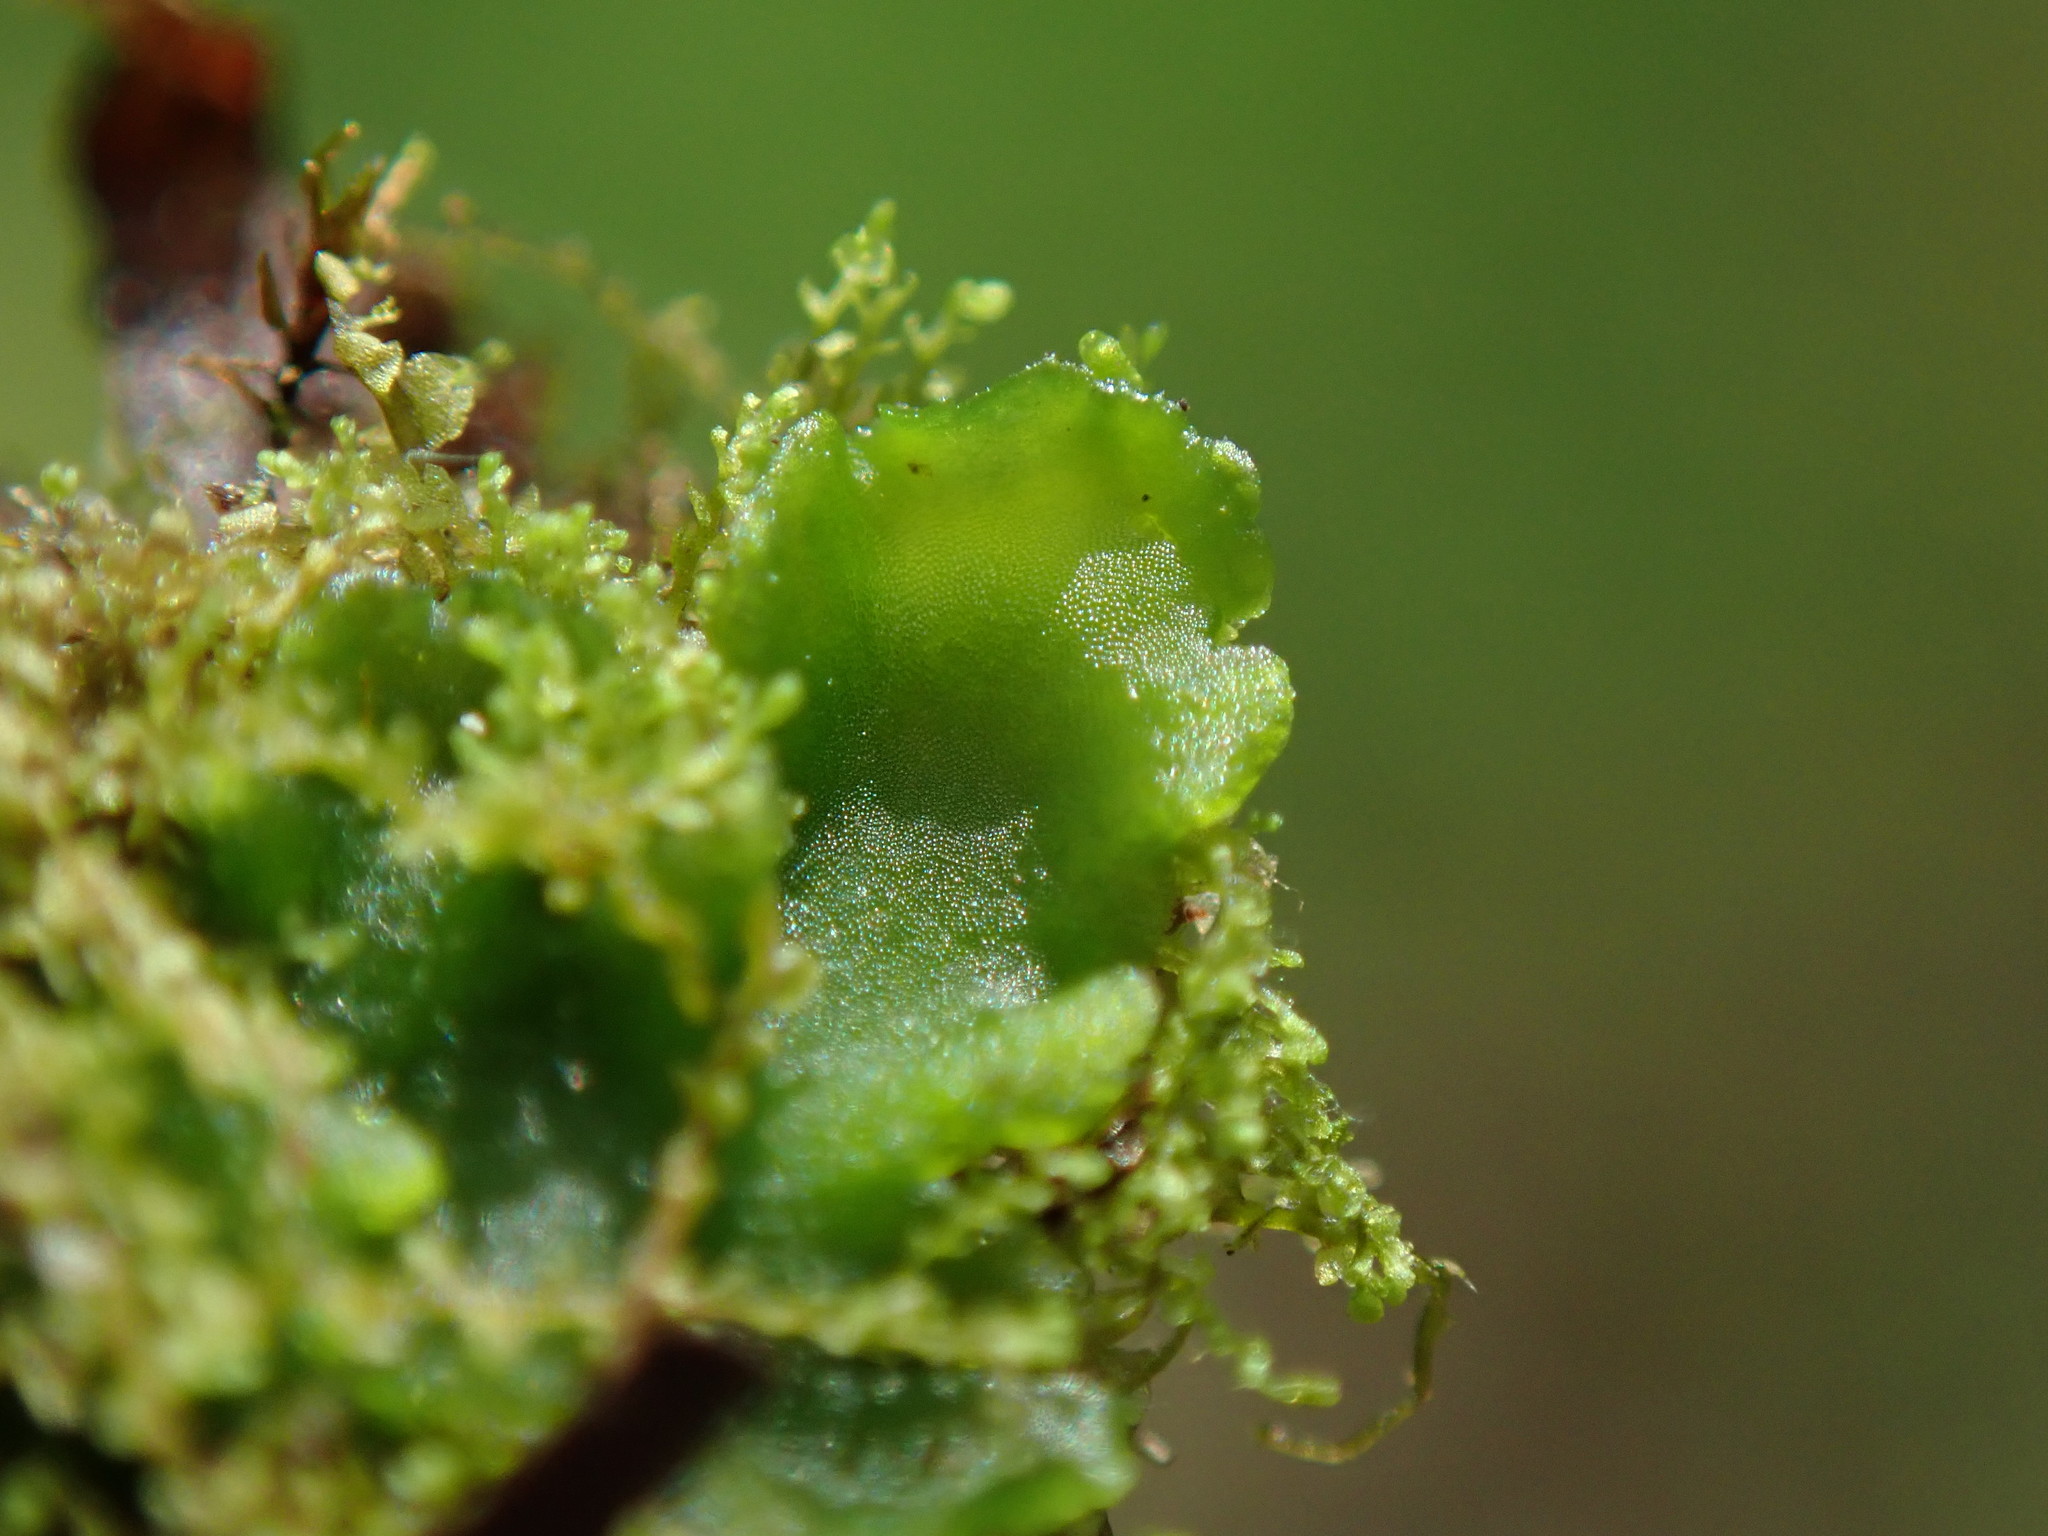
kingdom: Plantae
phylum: Marchantiophyta
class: Jungermanniopsida
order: Metzgeriales
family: Aneuraceae
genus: Aneura
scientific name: Aneura pinguis
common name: Common greasewort
